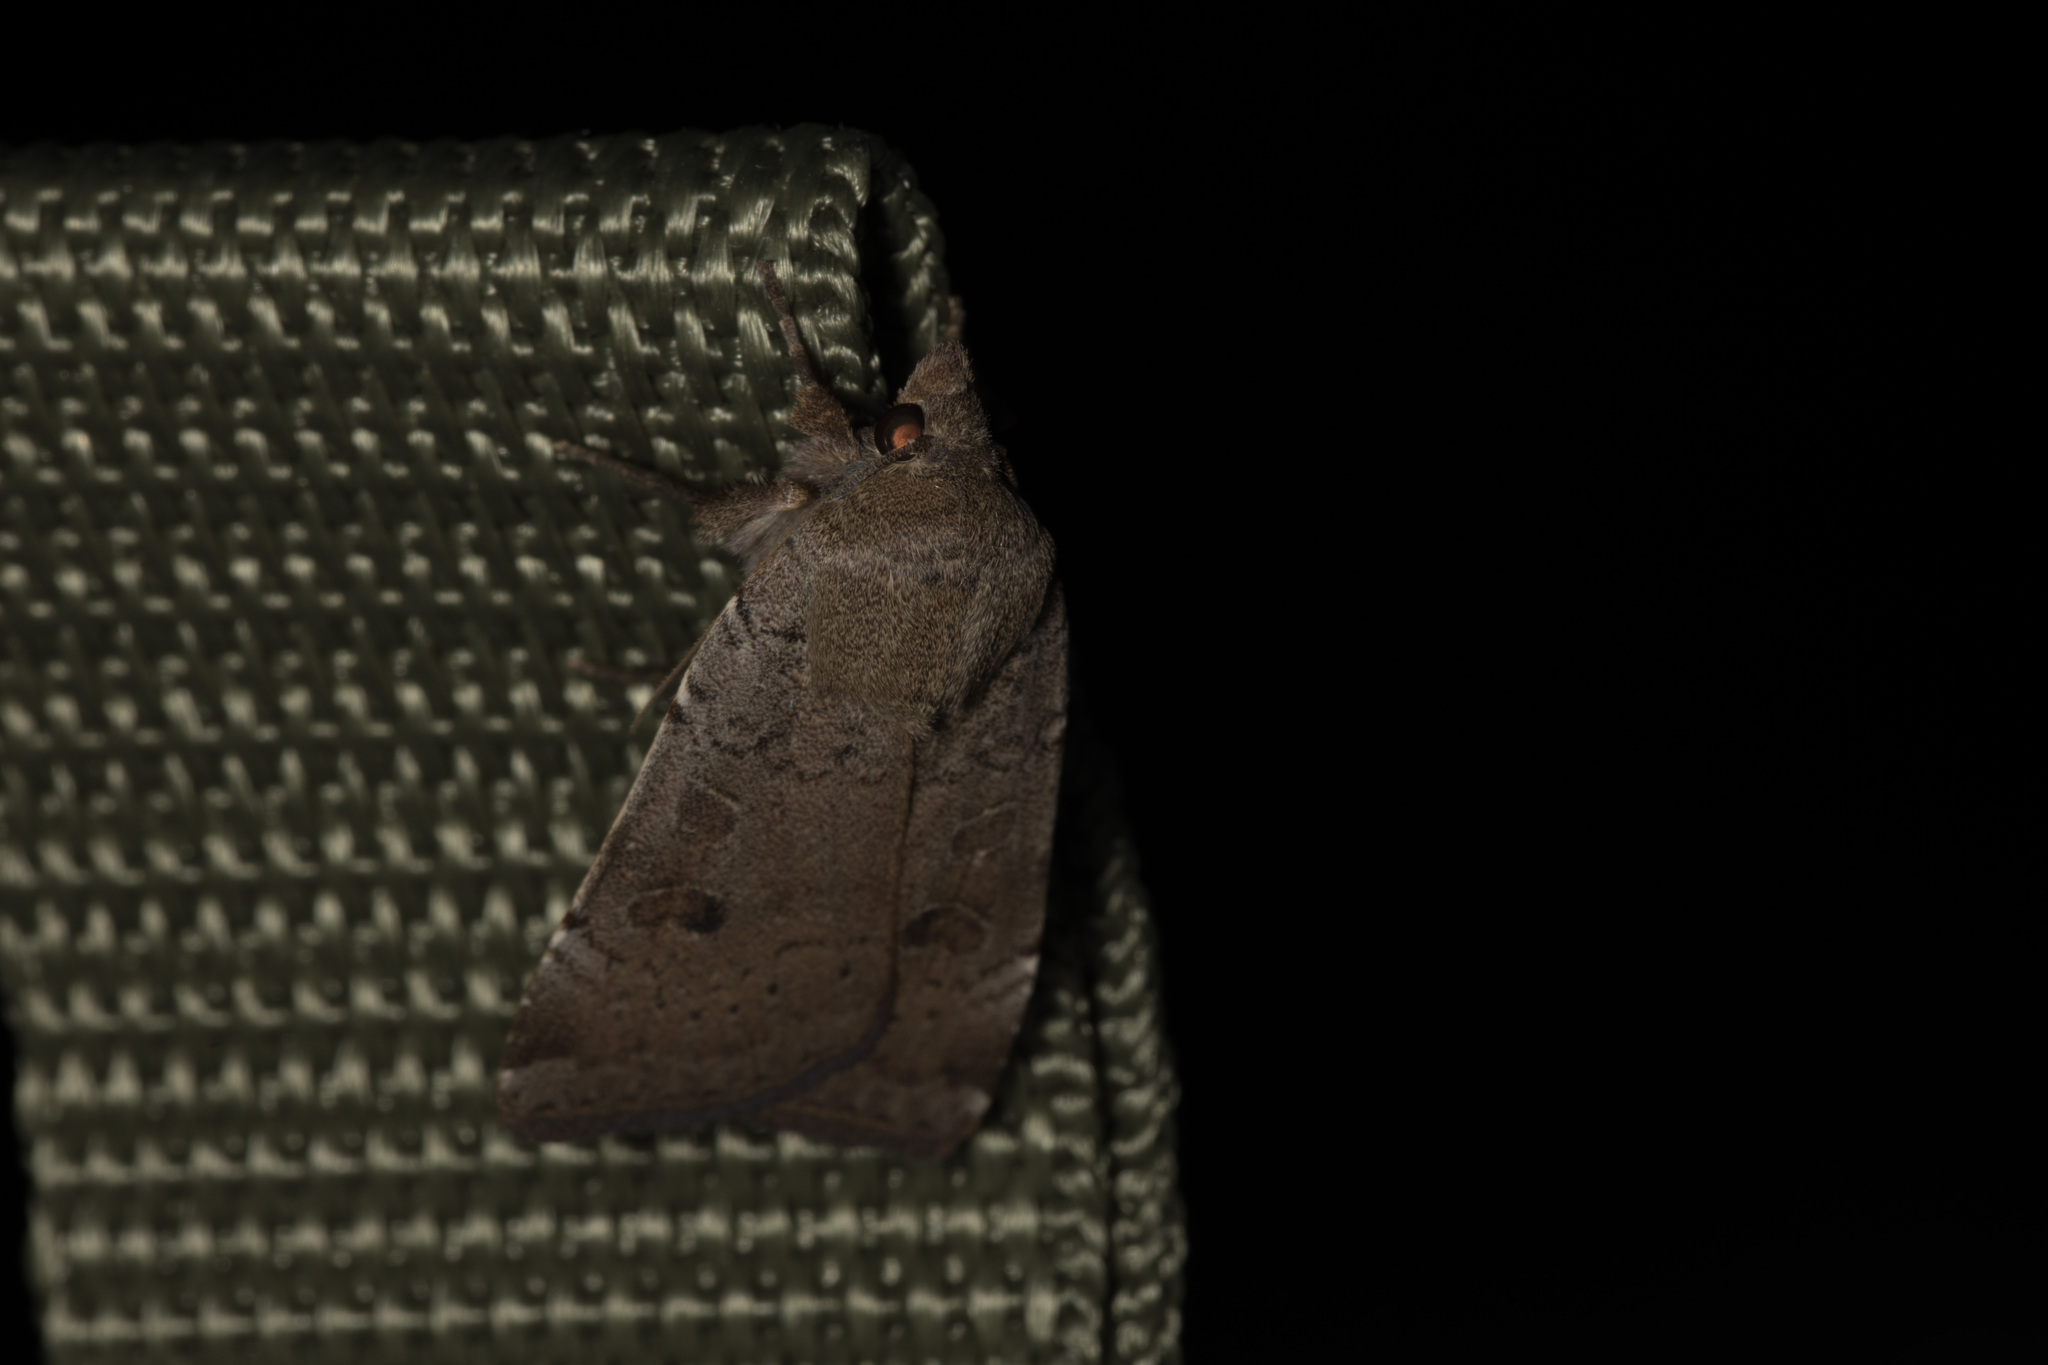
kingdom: Animalia
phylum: Arthropoda
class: Insecta
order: Lepidoptera
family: Noctuidae
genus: Noctua
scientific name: Noctua comes
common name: Lesser yellow underwing
